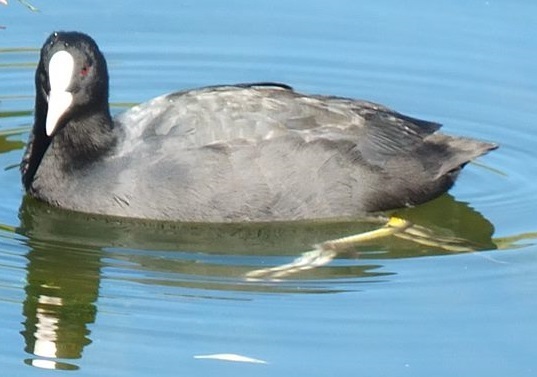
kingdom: Animalia
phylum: Chordata
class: Aves
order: Gruiformes
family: Rallidae
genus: Fulica
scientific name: Fulica atra
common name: Eurasian coot
